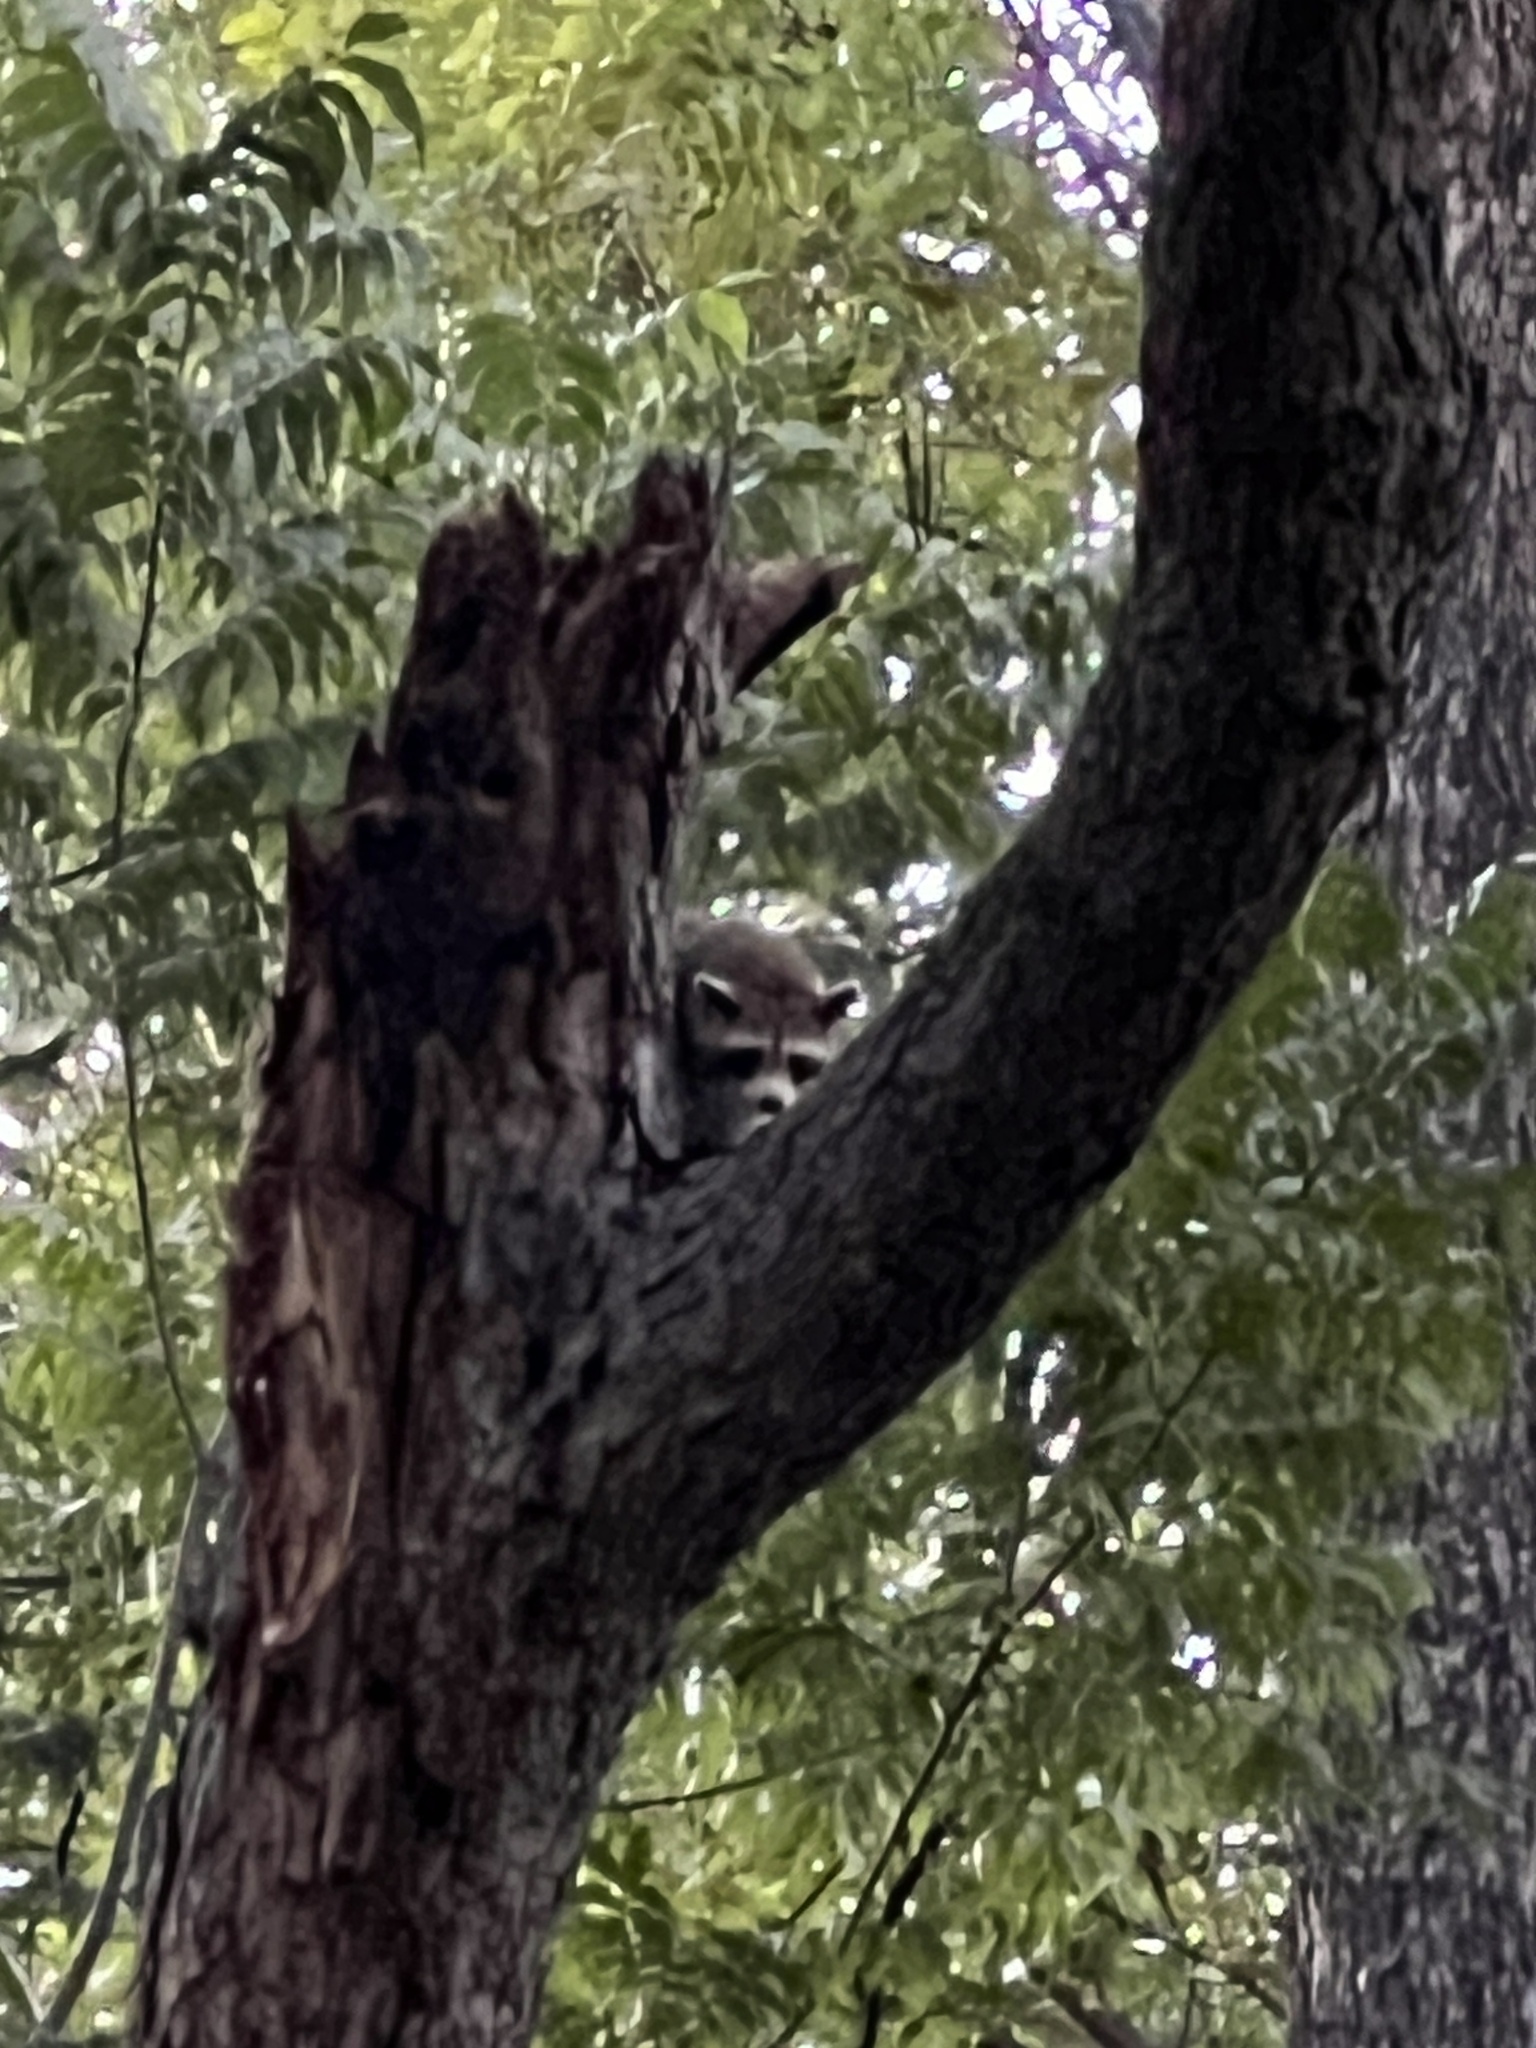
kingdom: Animalia
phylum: Chordata
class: Mammalia
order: Carnivora
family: Procyonidae
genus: Procyon
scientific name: Procyon lotor
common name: Raccoon
